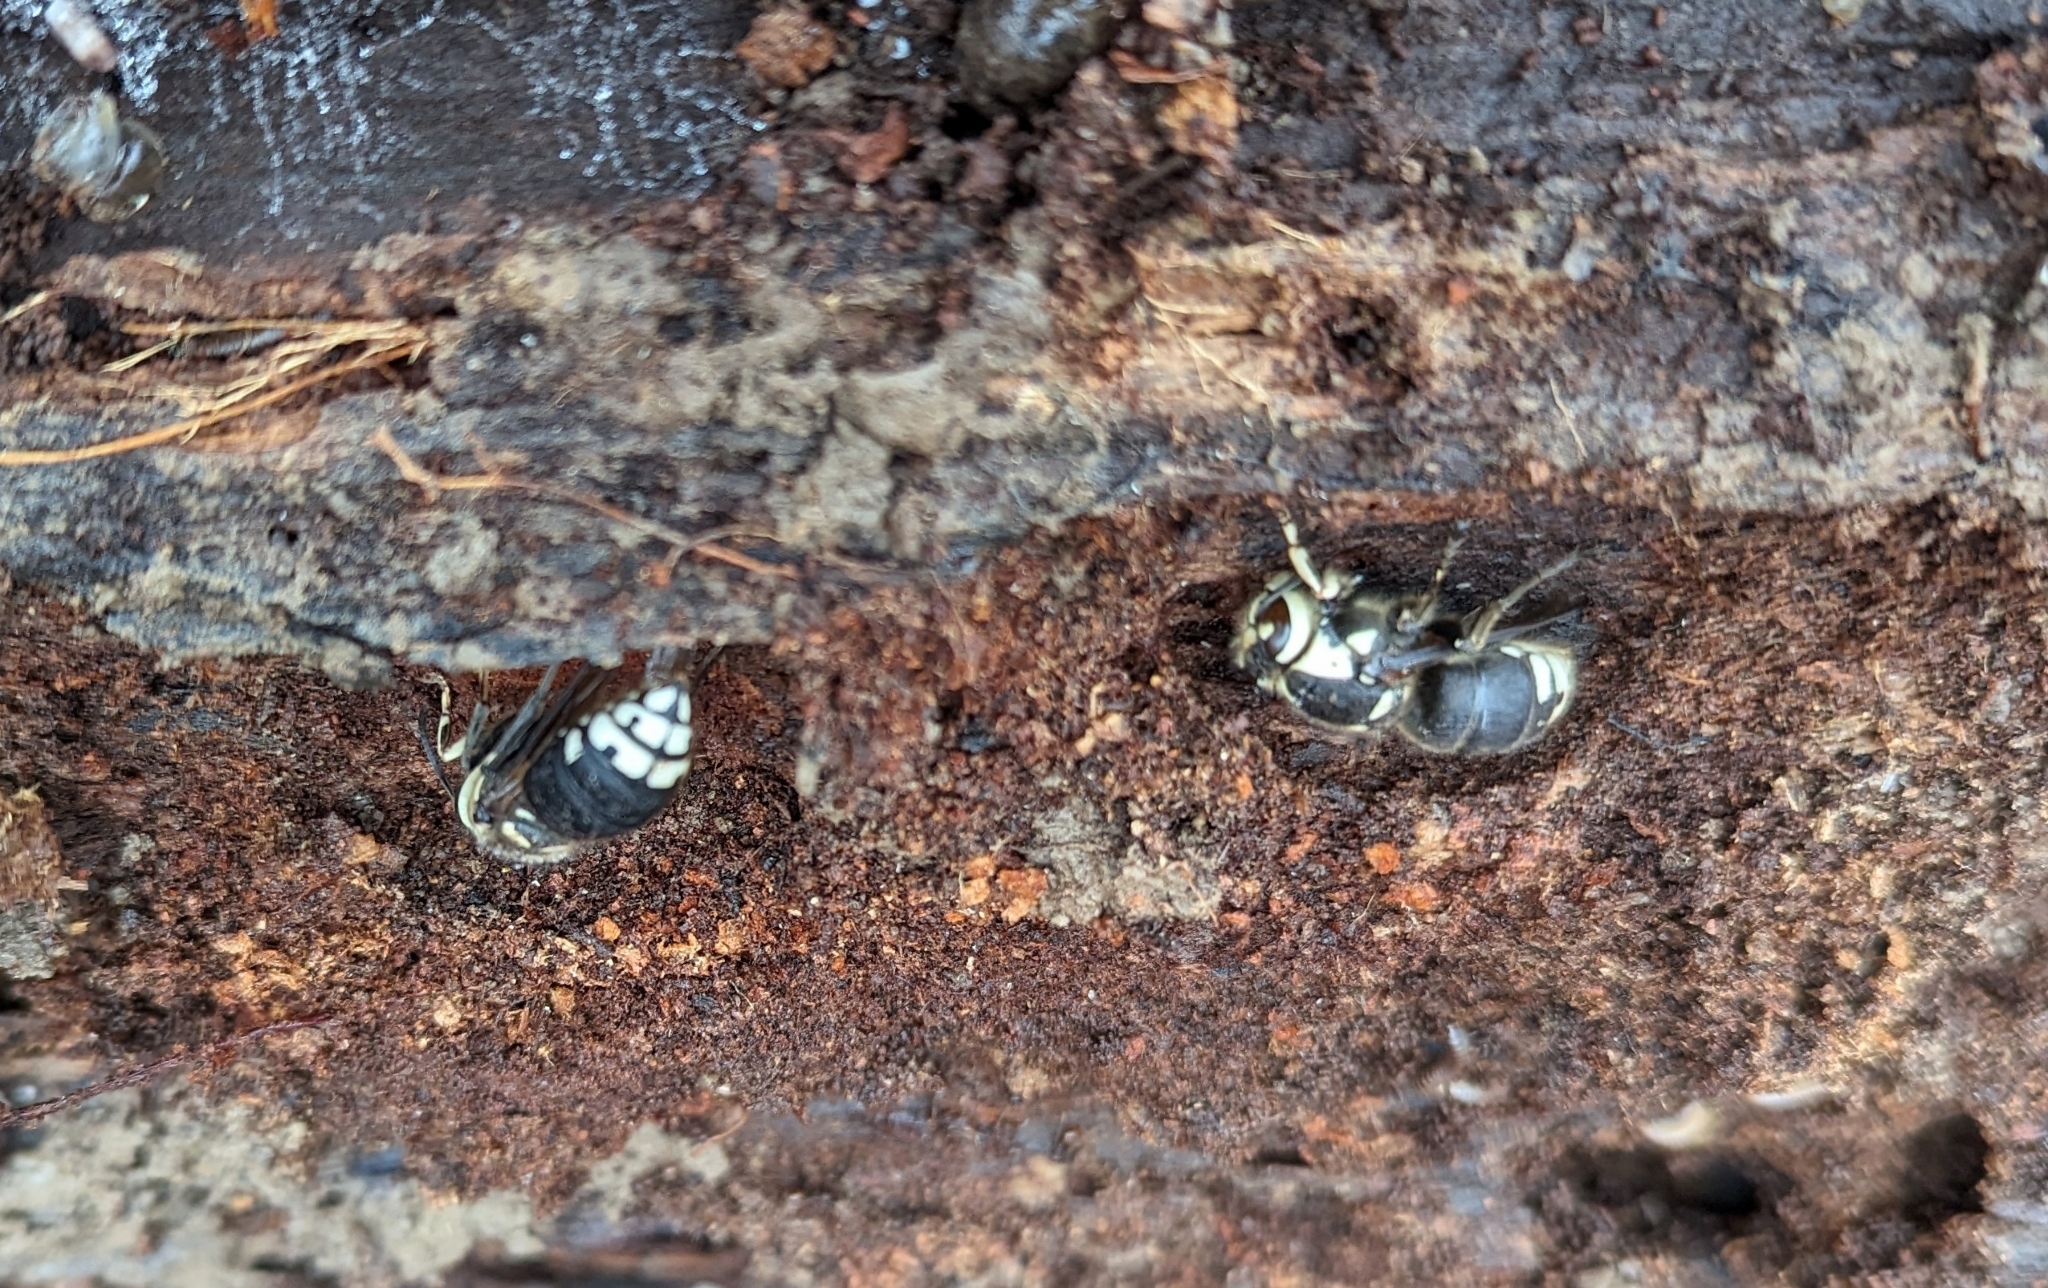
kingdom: Animalia
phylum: Arthropoda
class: Insecta
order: Hymenoptera
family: Vespidae
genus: Dolichovespula
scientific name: Dolichovespula maculata
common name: Bald-faced hornet
